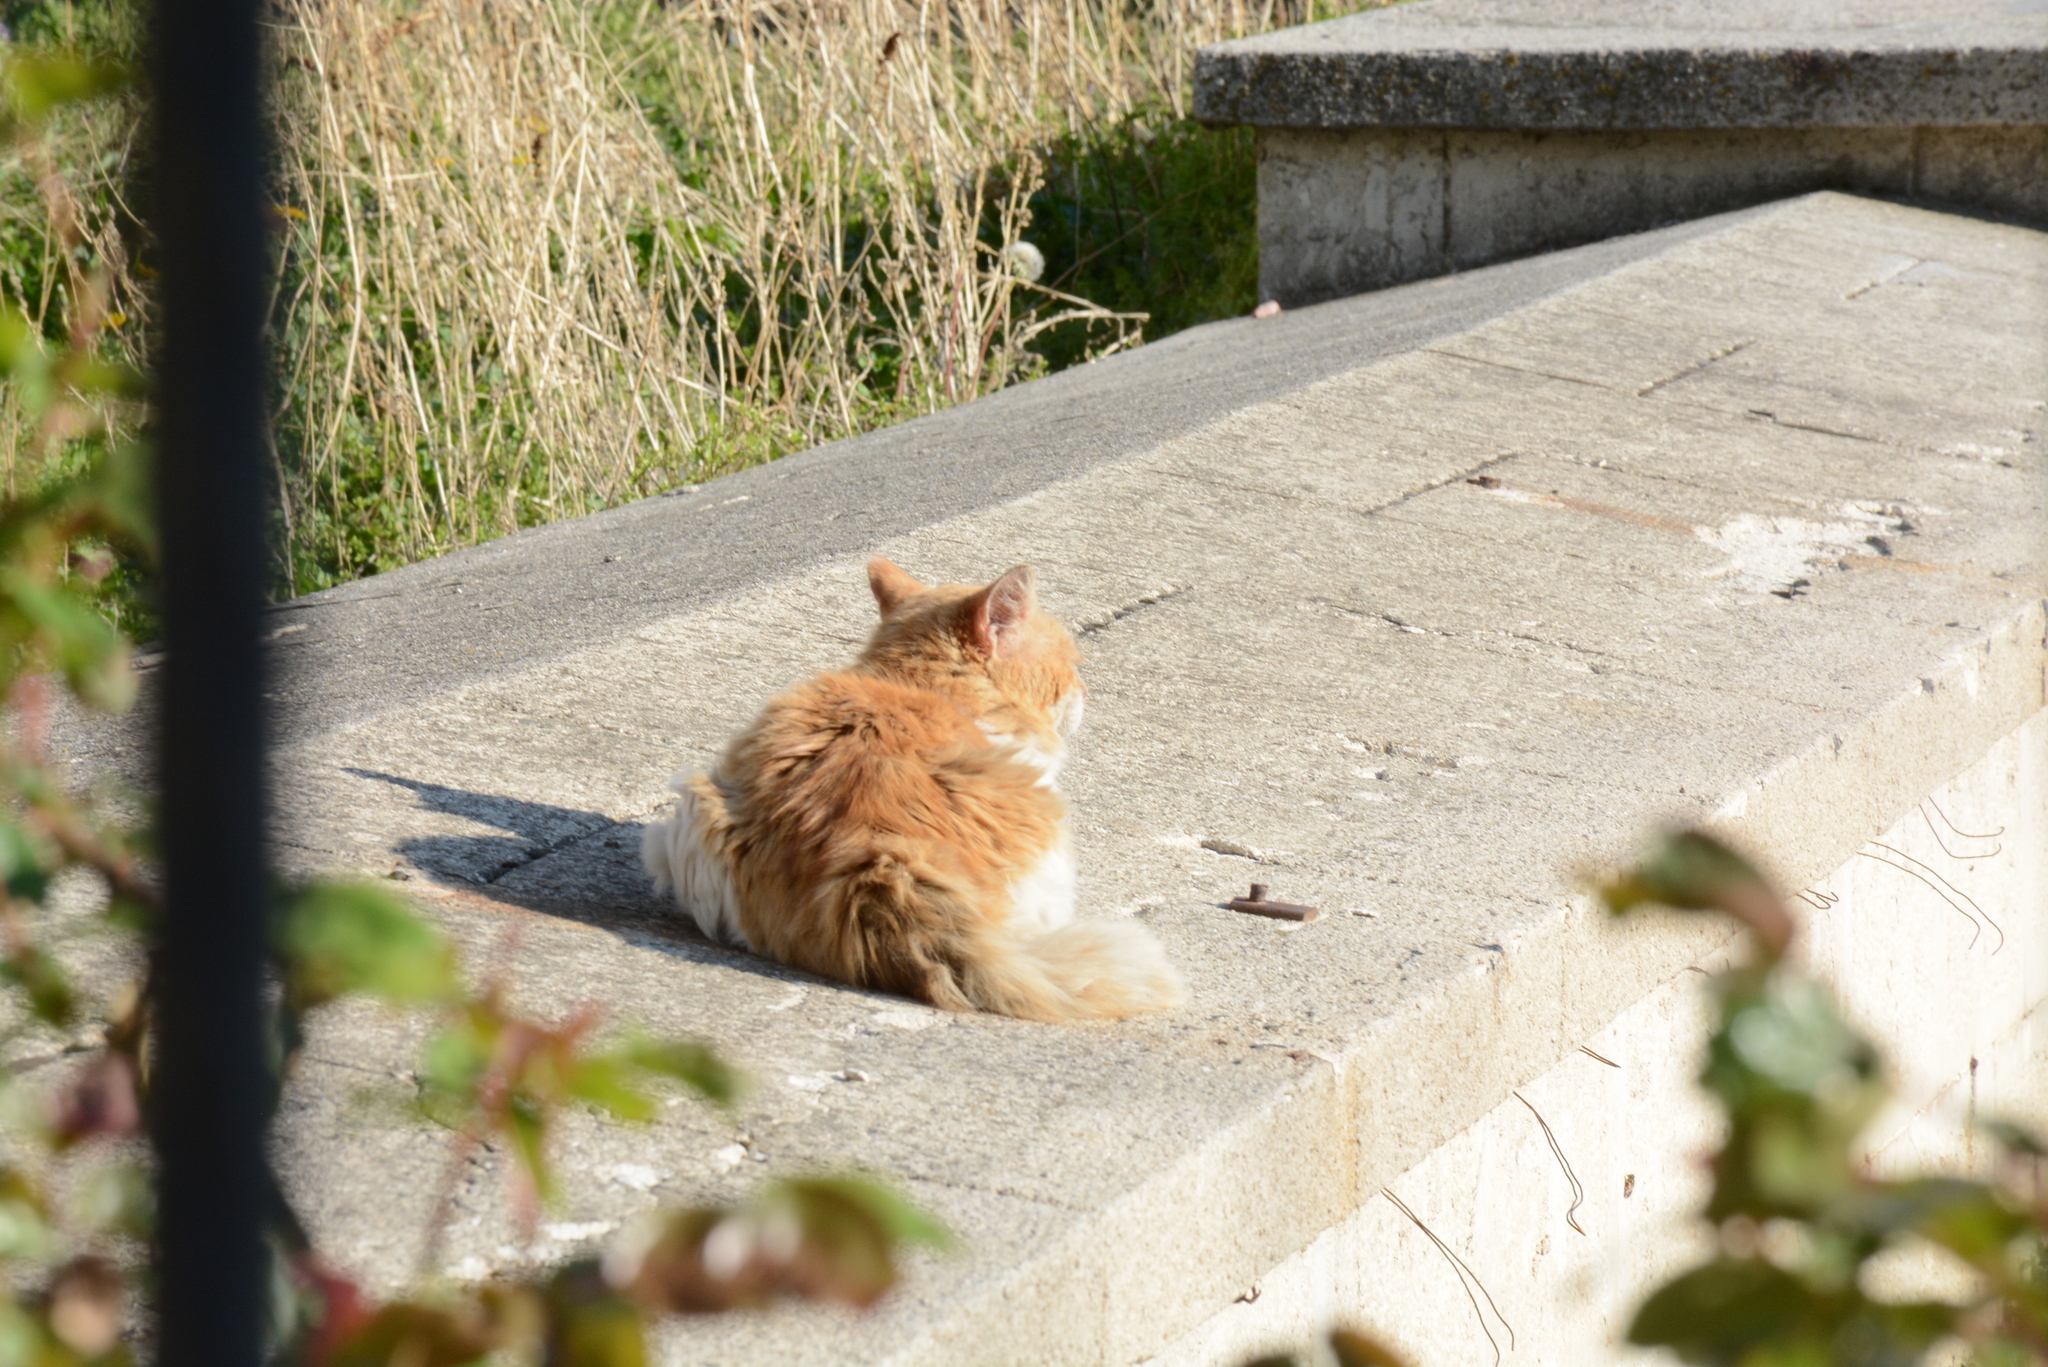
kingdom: Animalia
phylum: Chordata
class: Mammalia
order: Carnivora
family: Felidae
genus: Felis
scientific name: Felis catus
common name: Domestic cat
